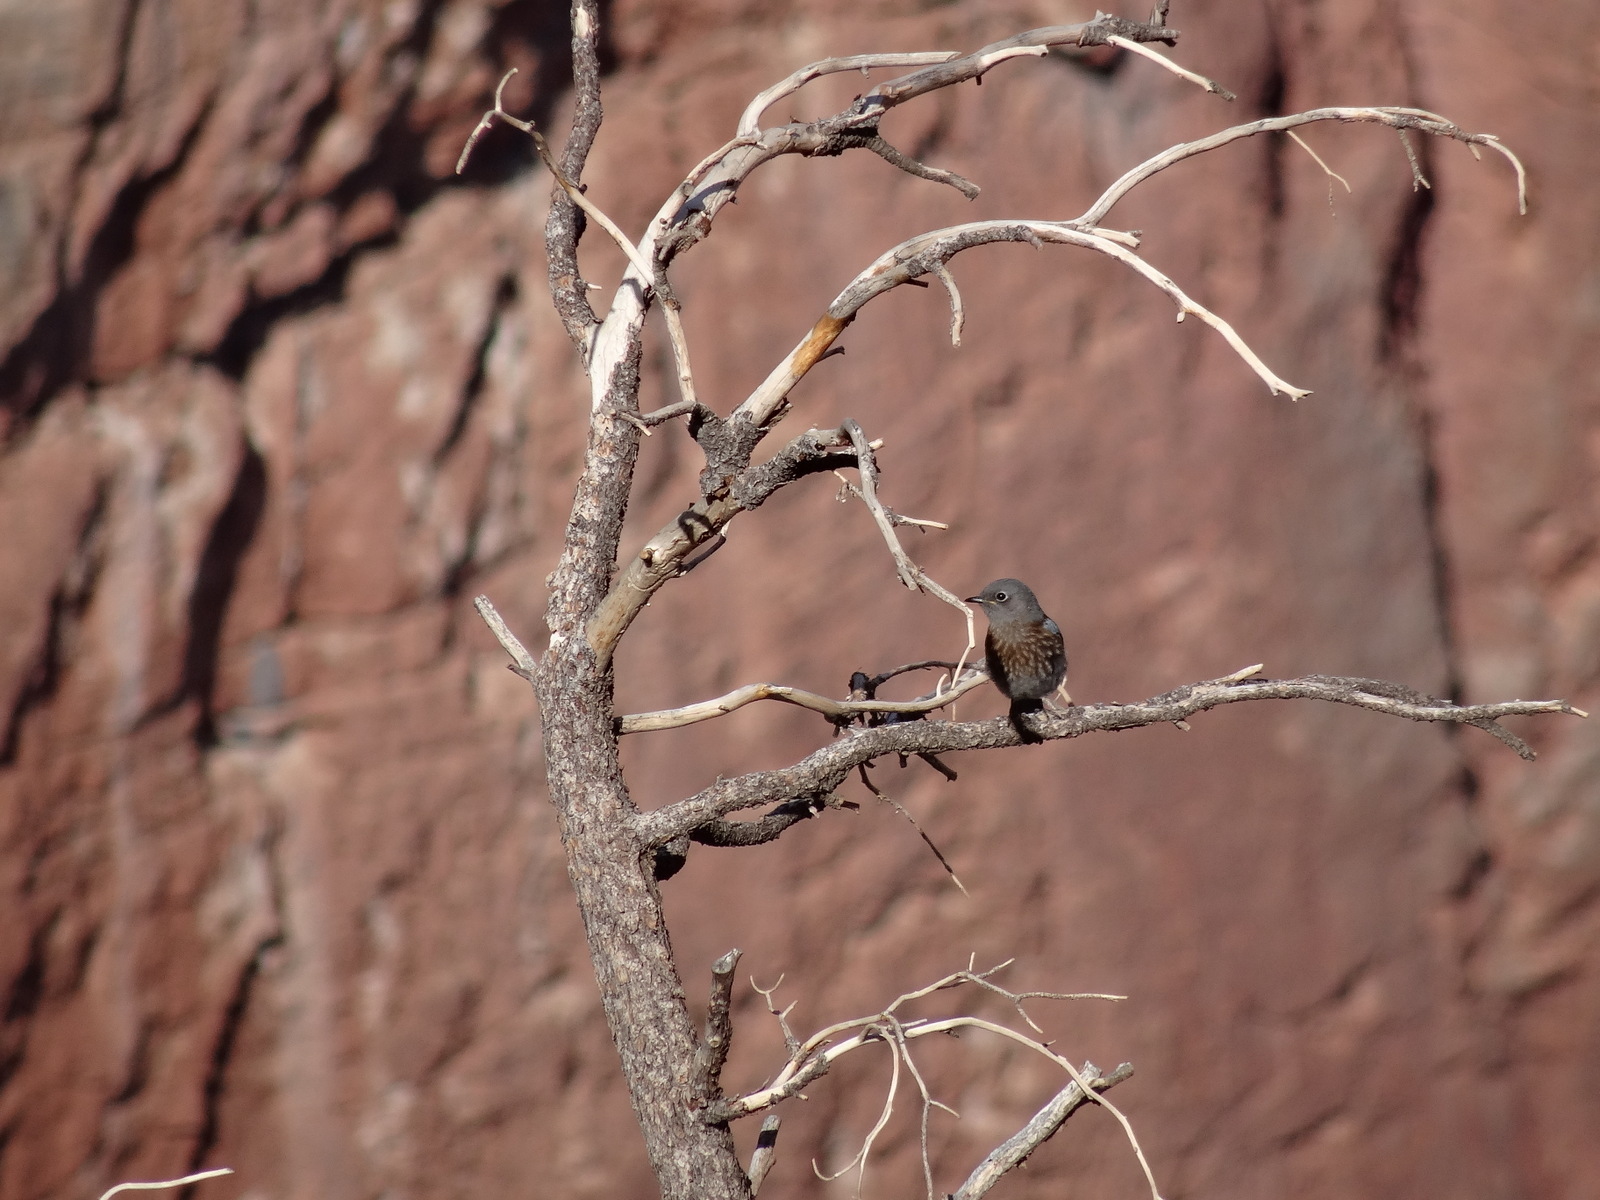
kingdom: Animalia
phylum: Chordata
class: Aves
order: Passeriformes
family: Turdidae
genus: Sialia
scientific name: Sialia mexicana
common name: Western bluebird
